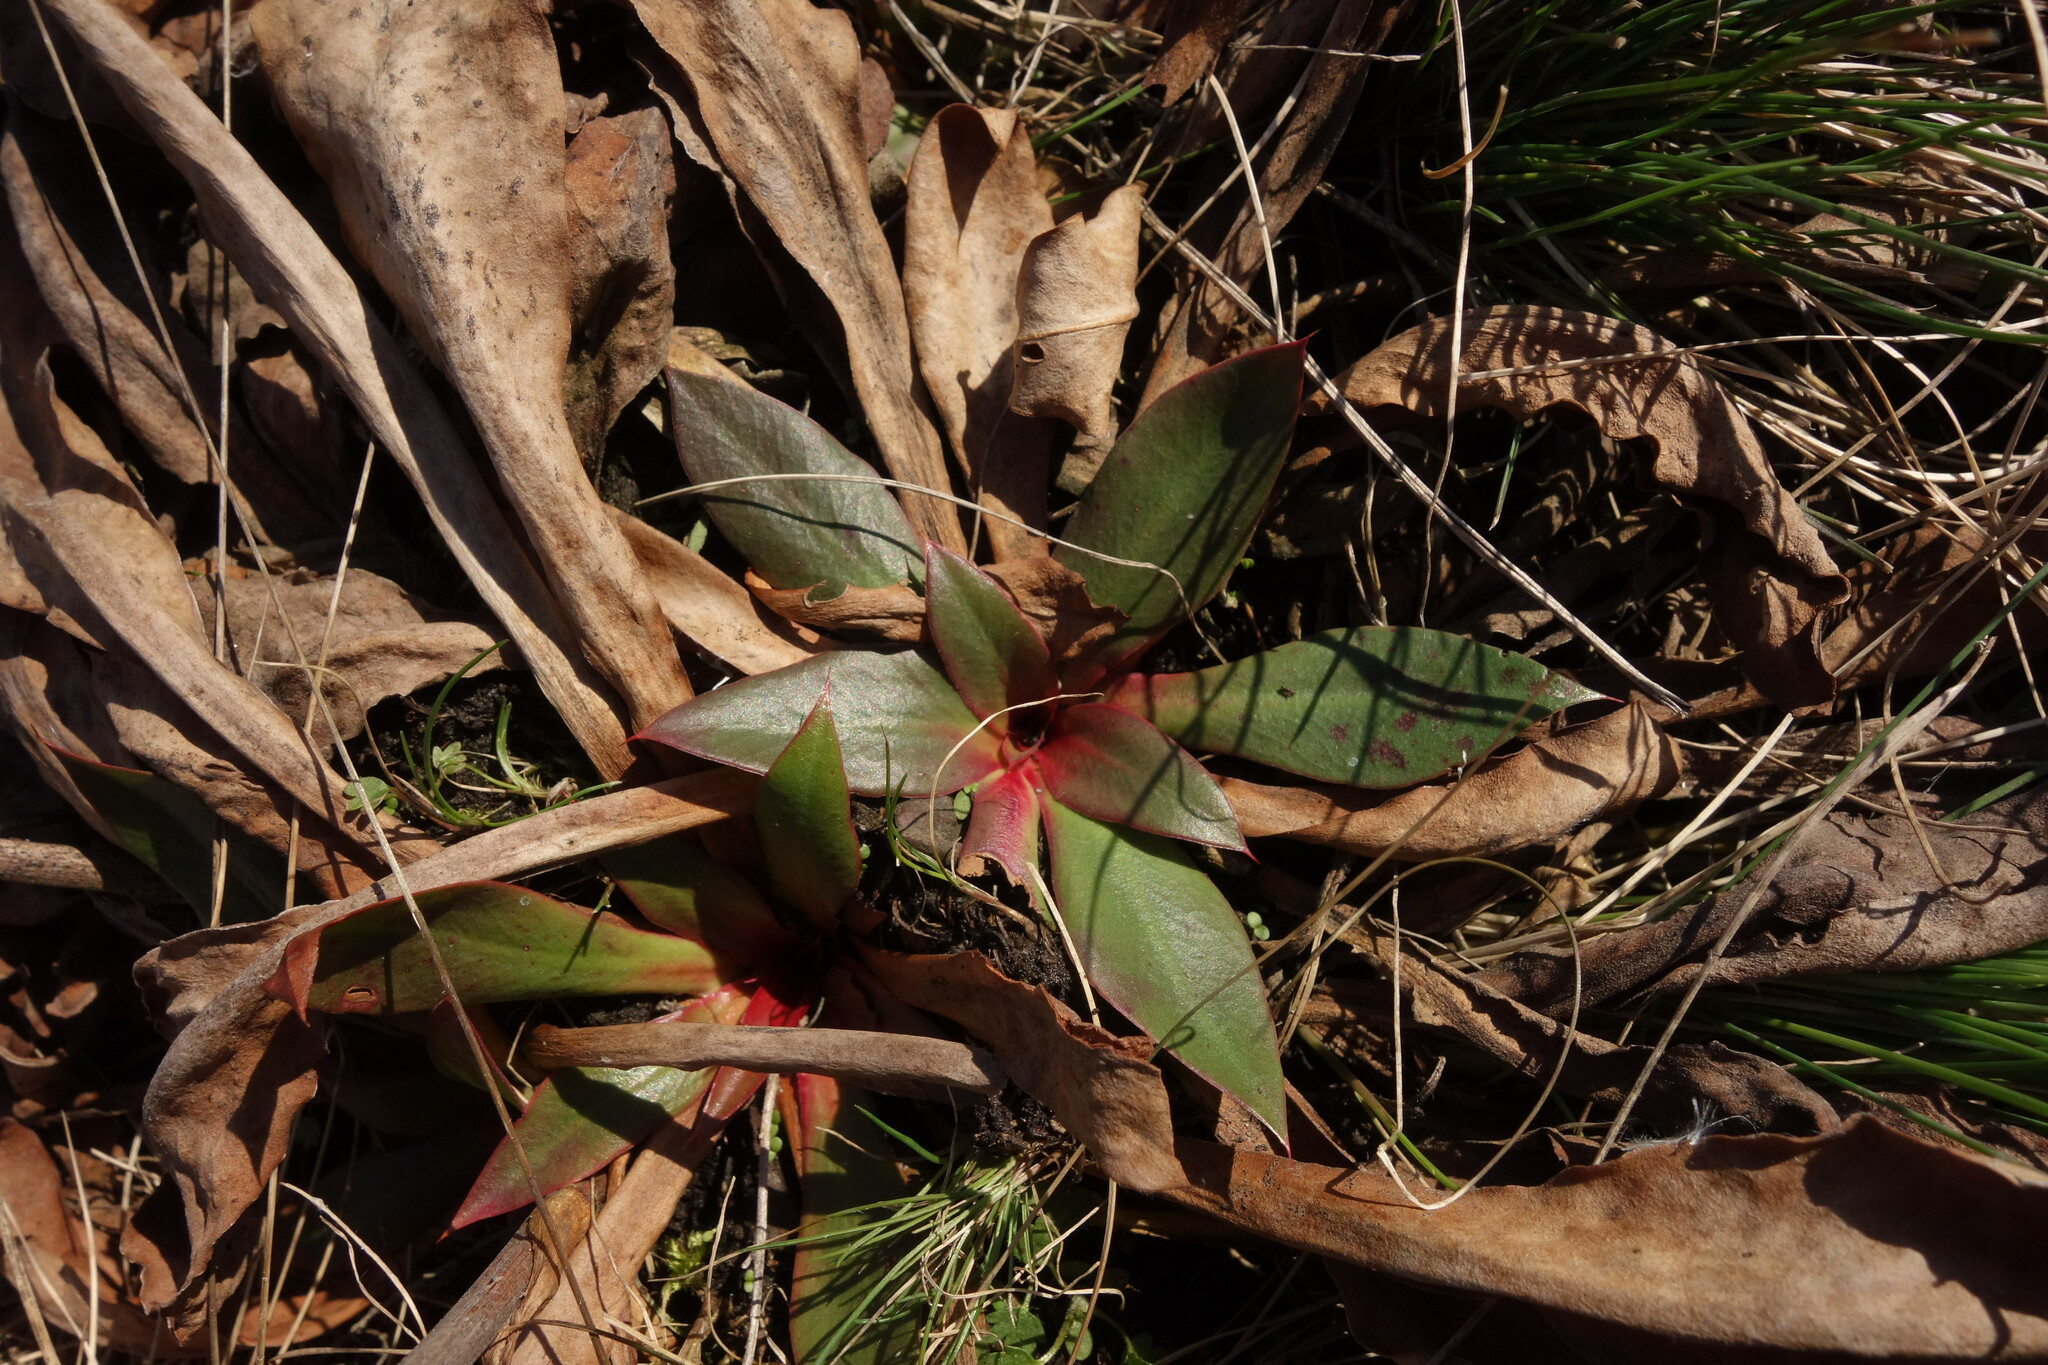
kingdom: Plantae
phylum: Tracheophyta
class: Magnoliopsida
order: Caryophyllales
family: Plumbaginaceae
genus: Limonium
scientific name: Limonium tomentellum
